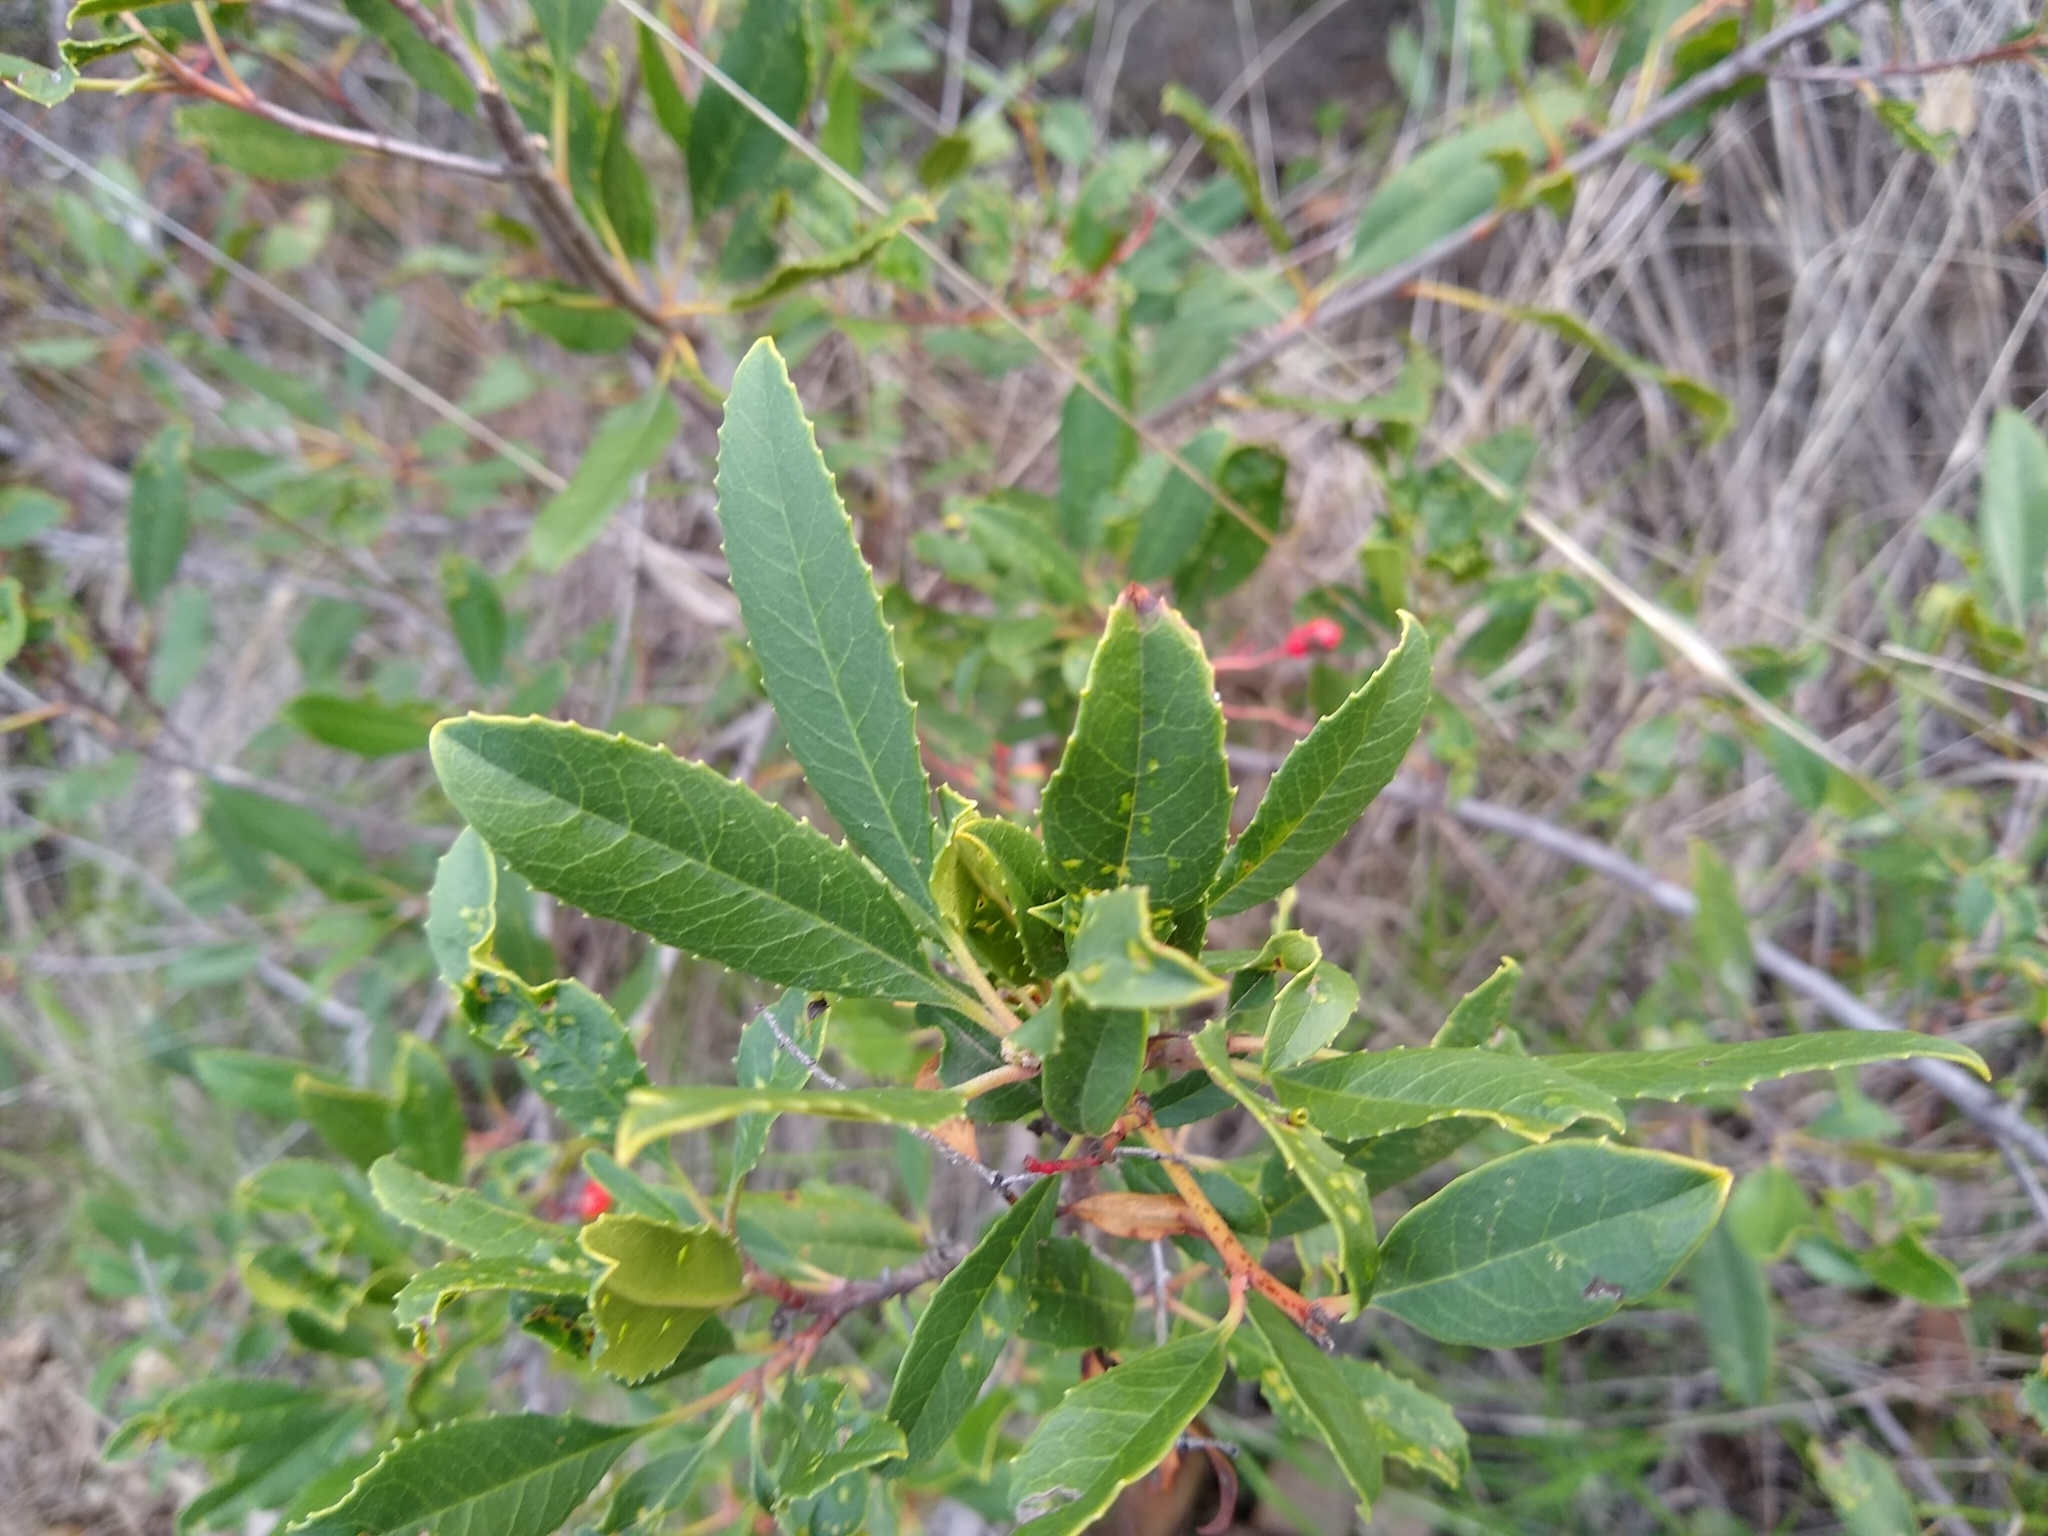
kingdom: Plantae
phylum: Tracheophyta
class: Magnoliopsida
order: Rosales
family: Rosaceae
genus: Heteromeles
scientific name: Heteromeles arbutifolia
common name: California-holly
